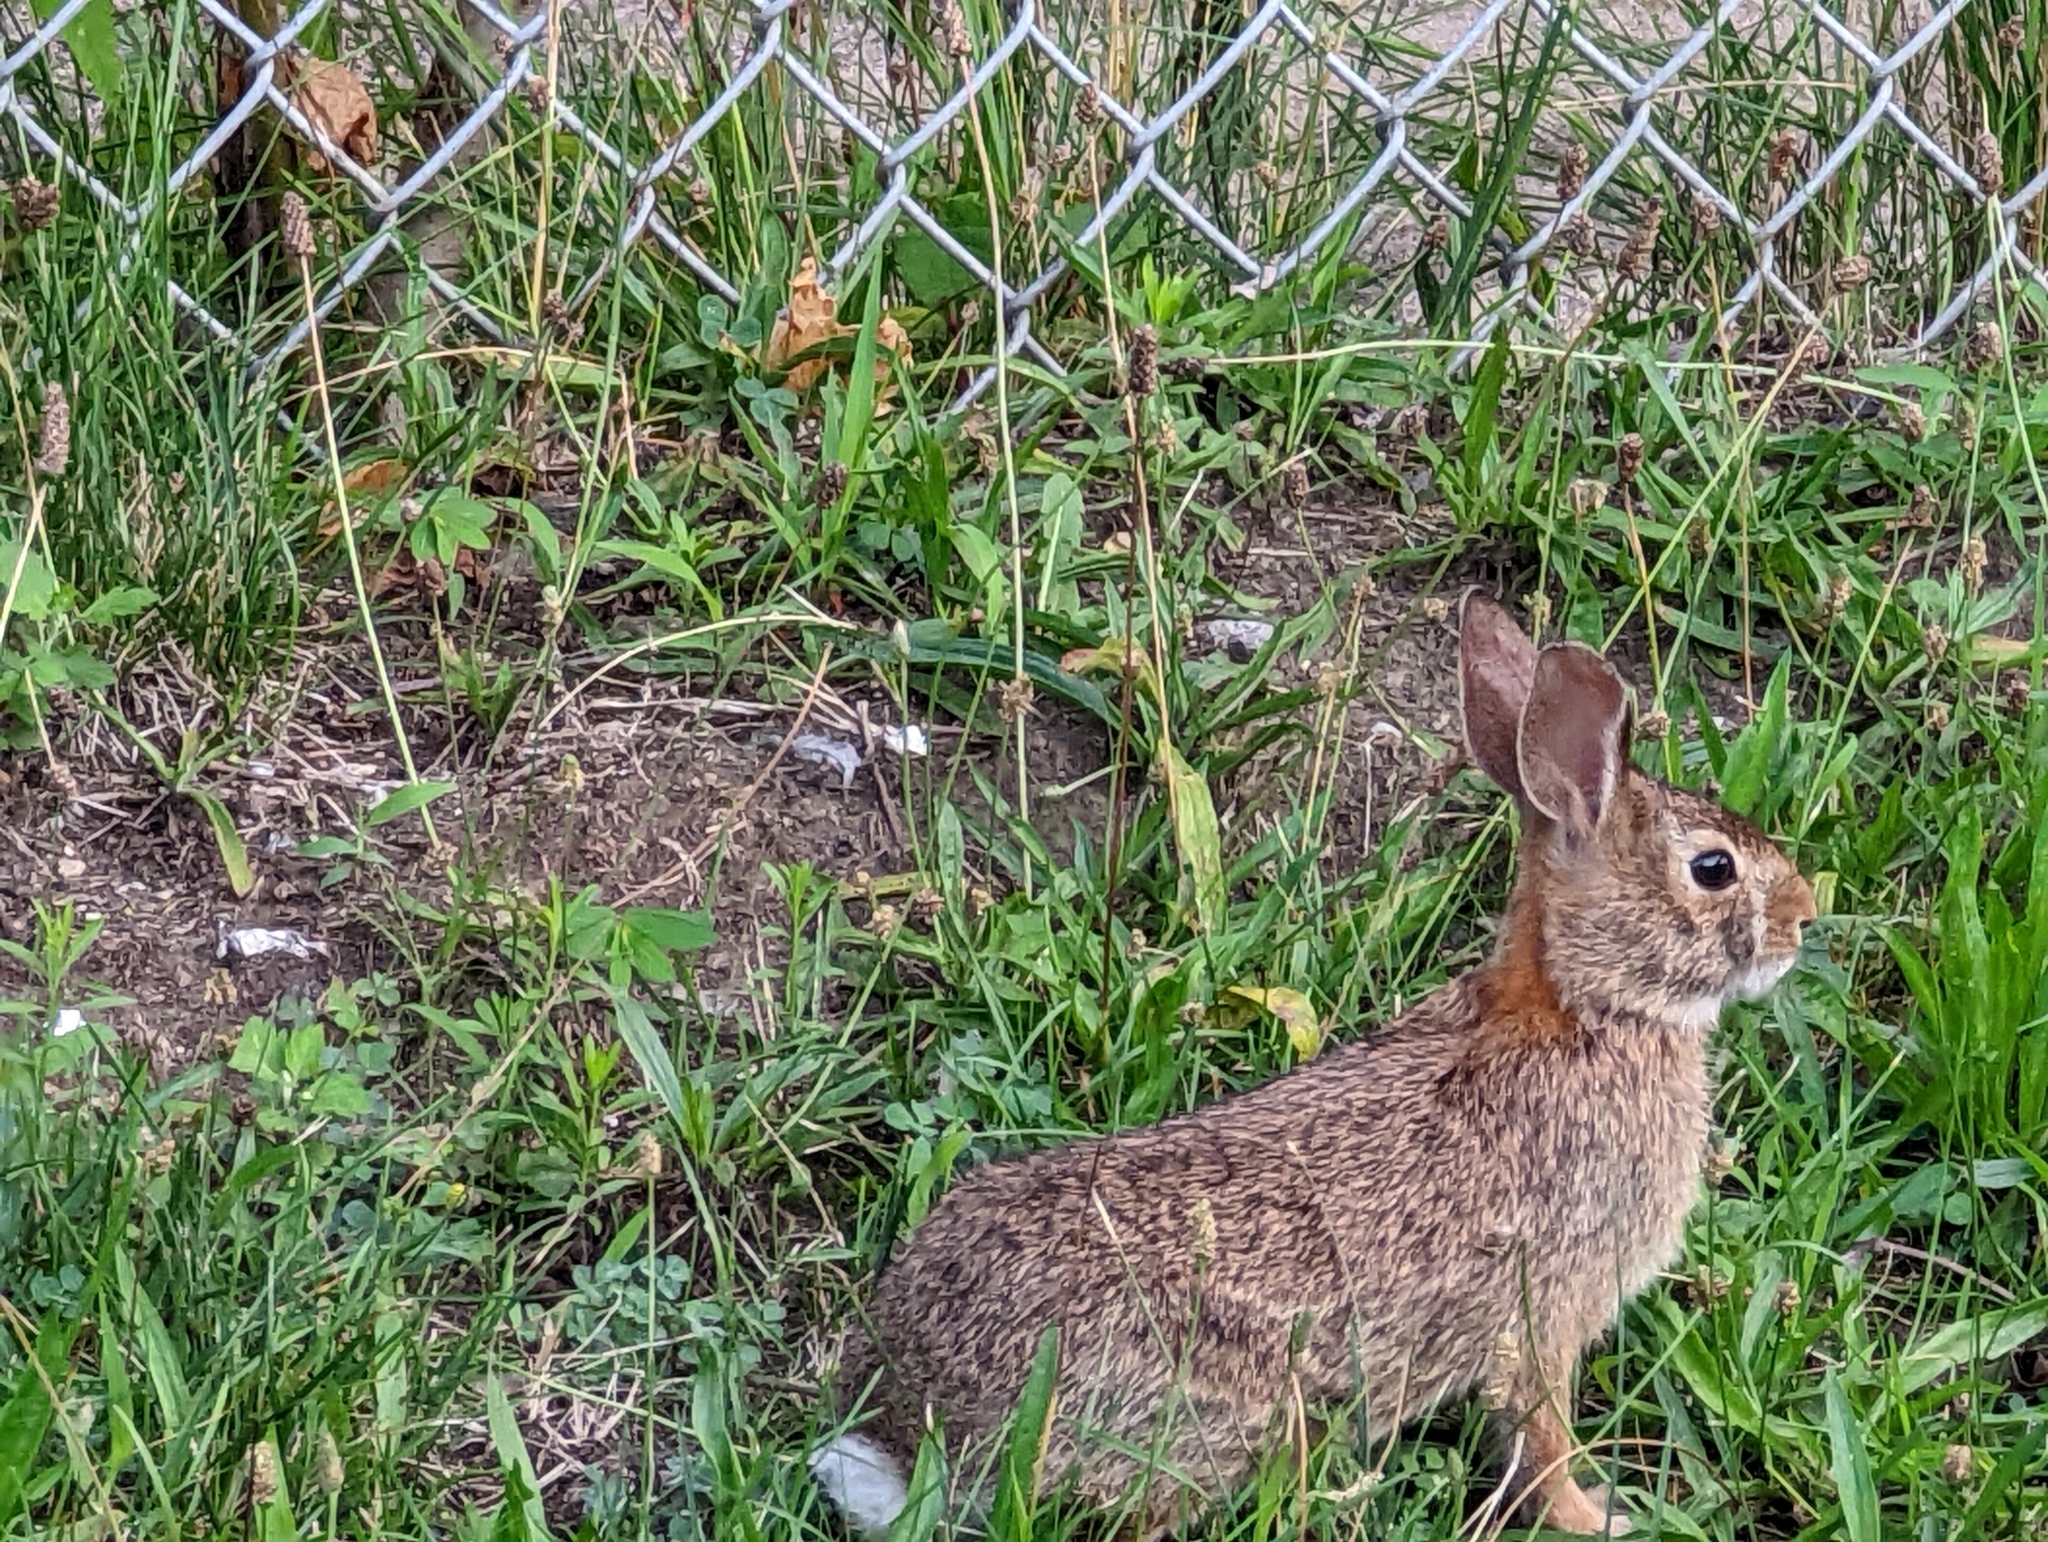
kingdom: Animalia
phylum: Chordata
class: Mammalia
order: Lagomorpha
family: Leporidae
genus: Sylvilagus
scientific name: Sylvilagus floridanus
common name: Eastern cottontail
